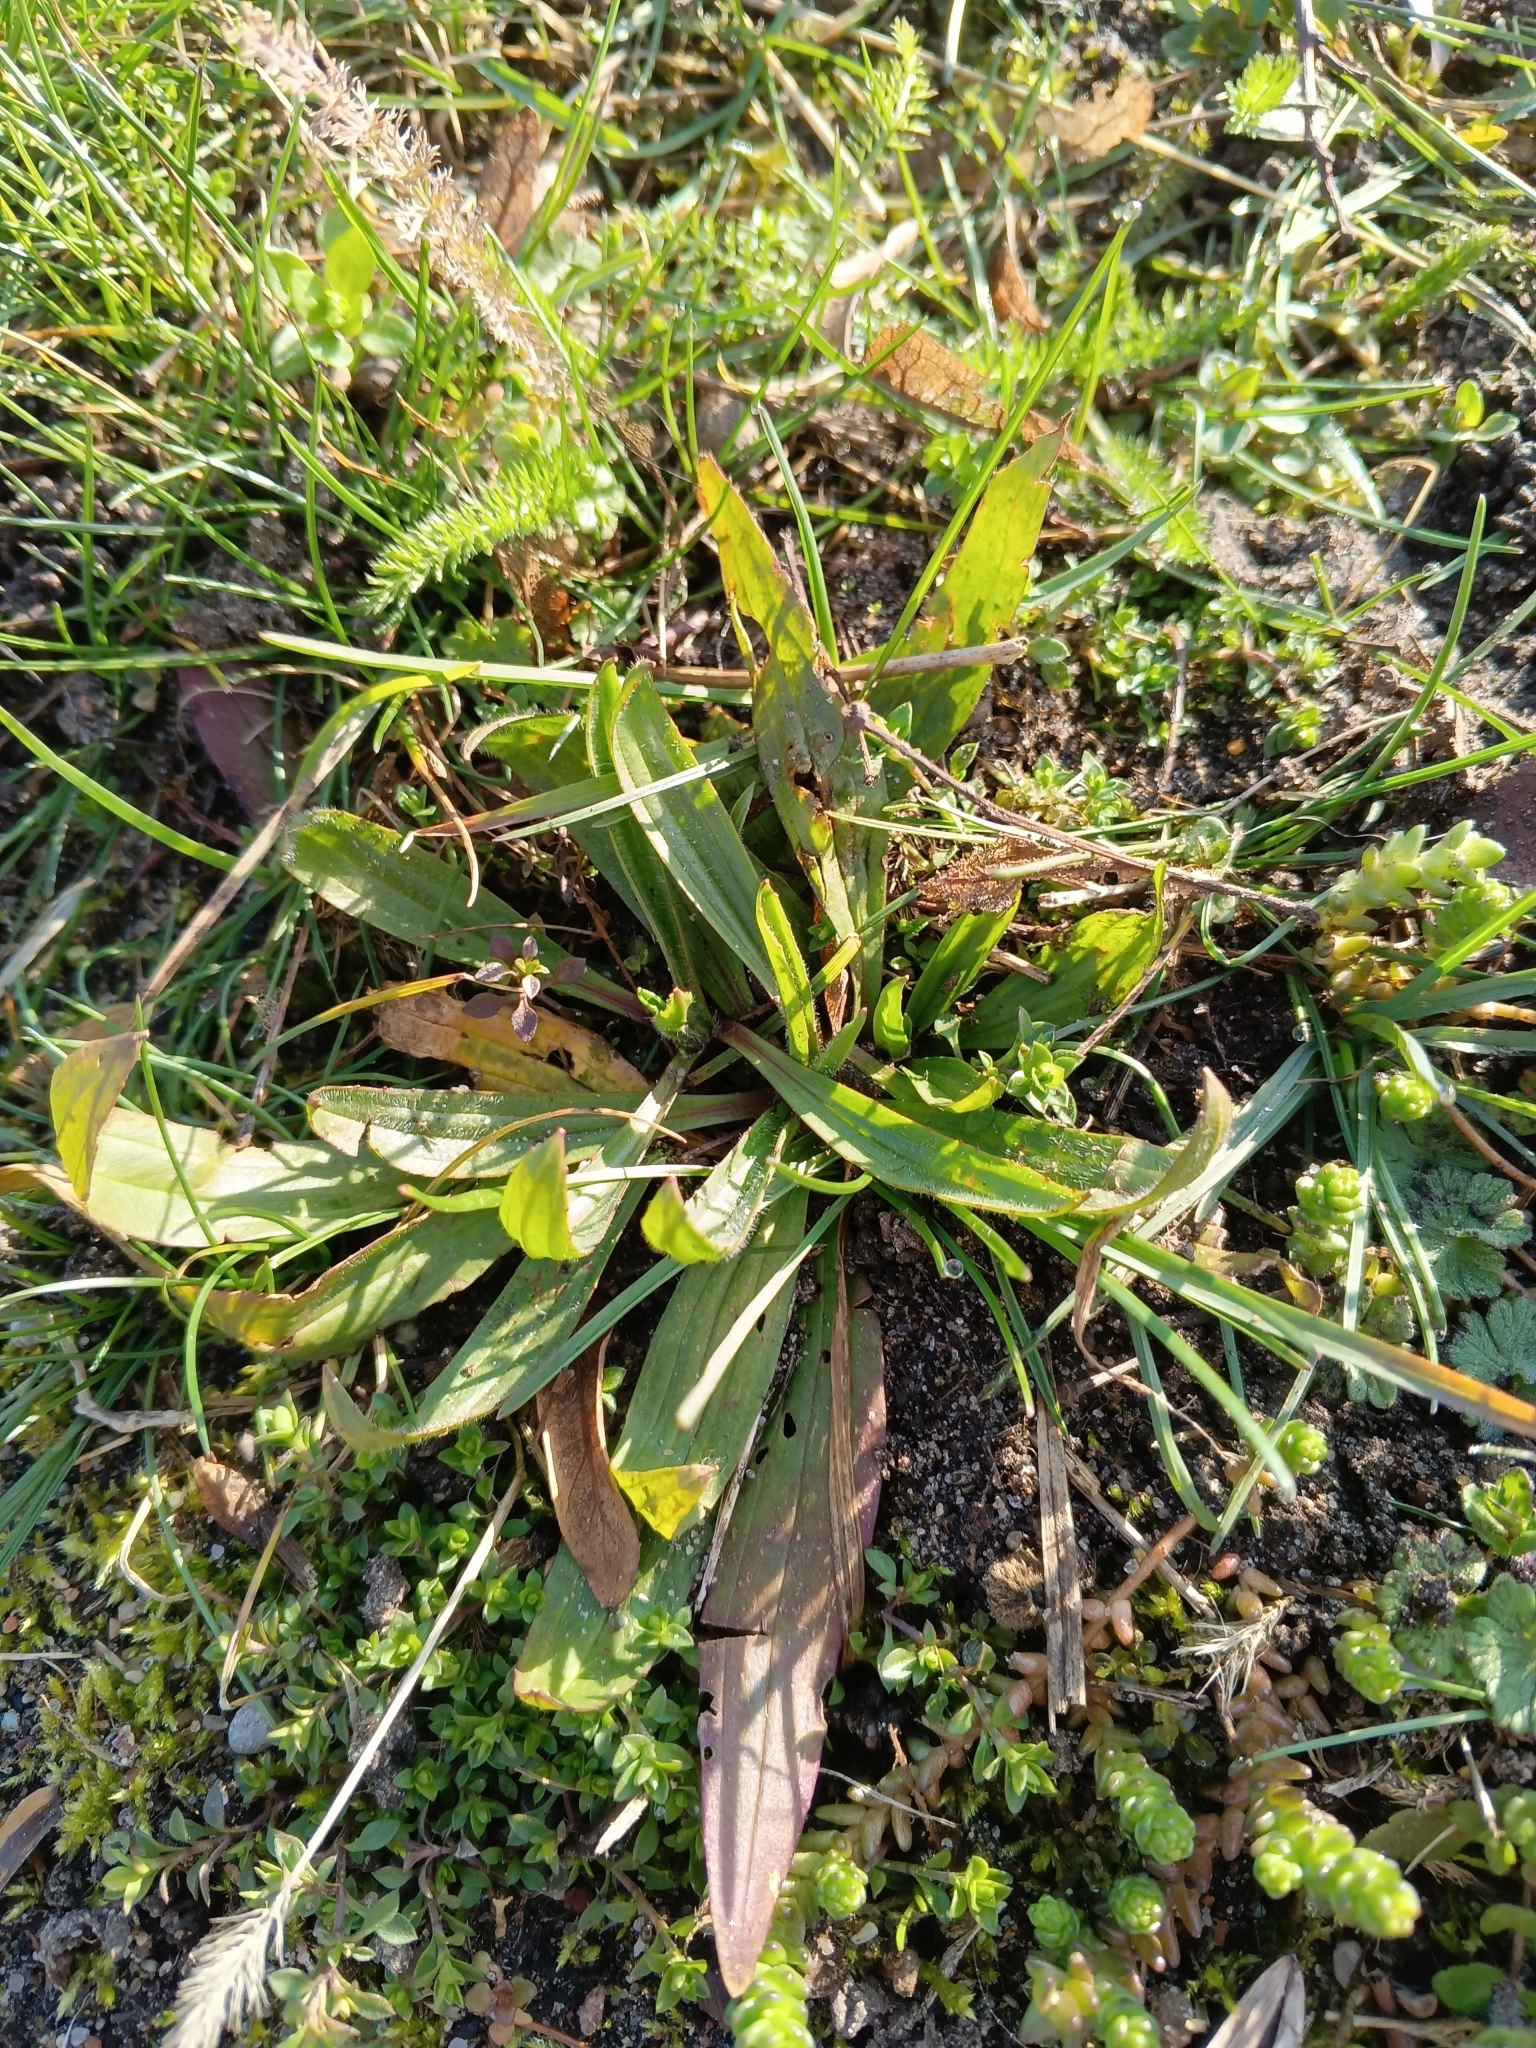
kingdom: Plantae
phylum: Tracheophyta
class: Magnoliopsida
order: Lamiales
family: Plantaginaceae
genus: Plantago
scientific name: Plantago lanceolata
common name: Ribwort plantain
